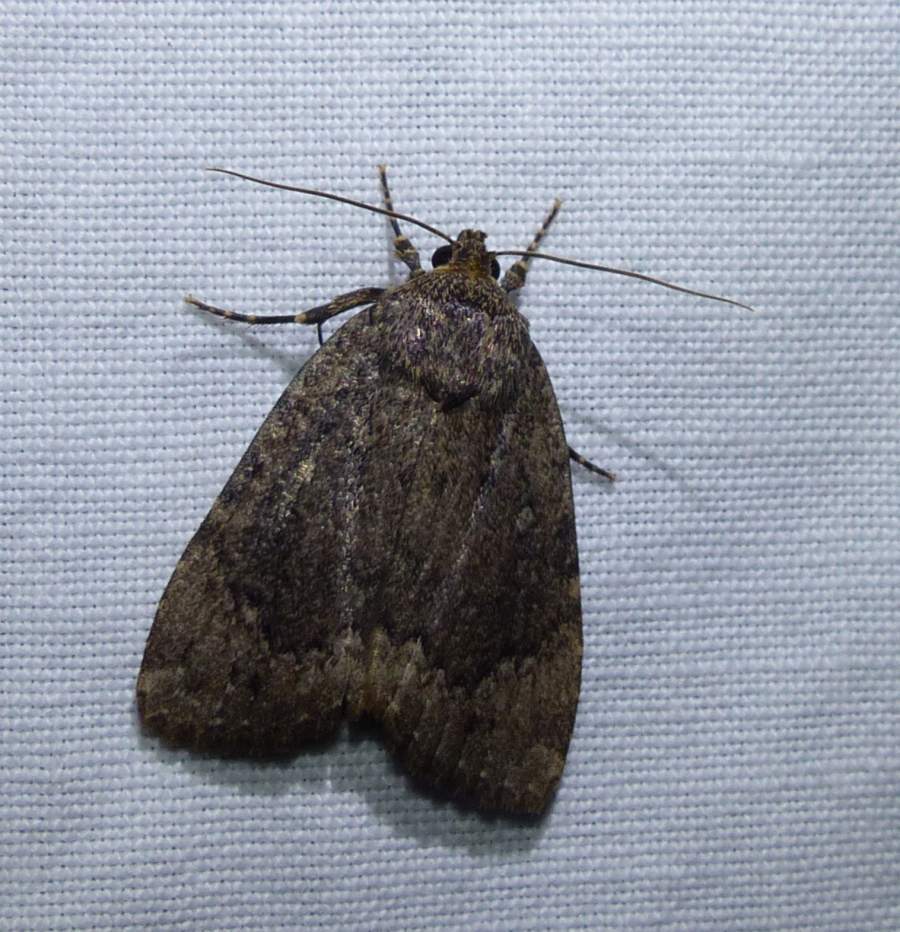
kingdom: Animalia
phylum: Arthropoda
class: Insecta
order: Lepidoptera
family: Noctuidae
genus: Amphipyra
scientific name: Amphipyra pyramidoides
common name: American copper underwing
